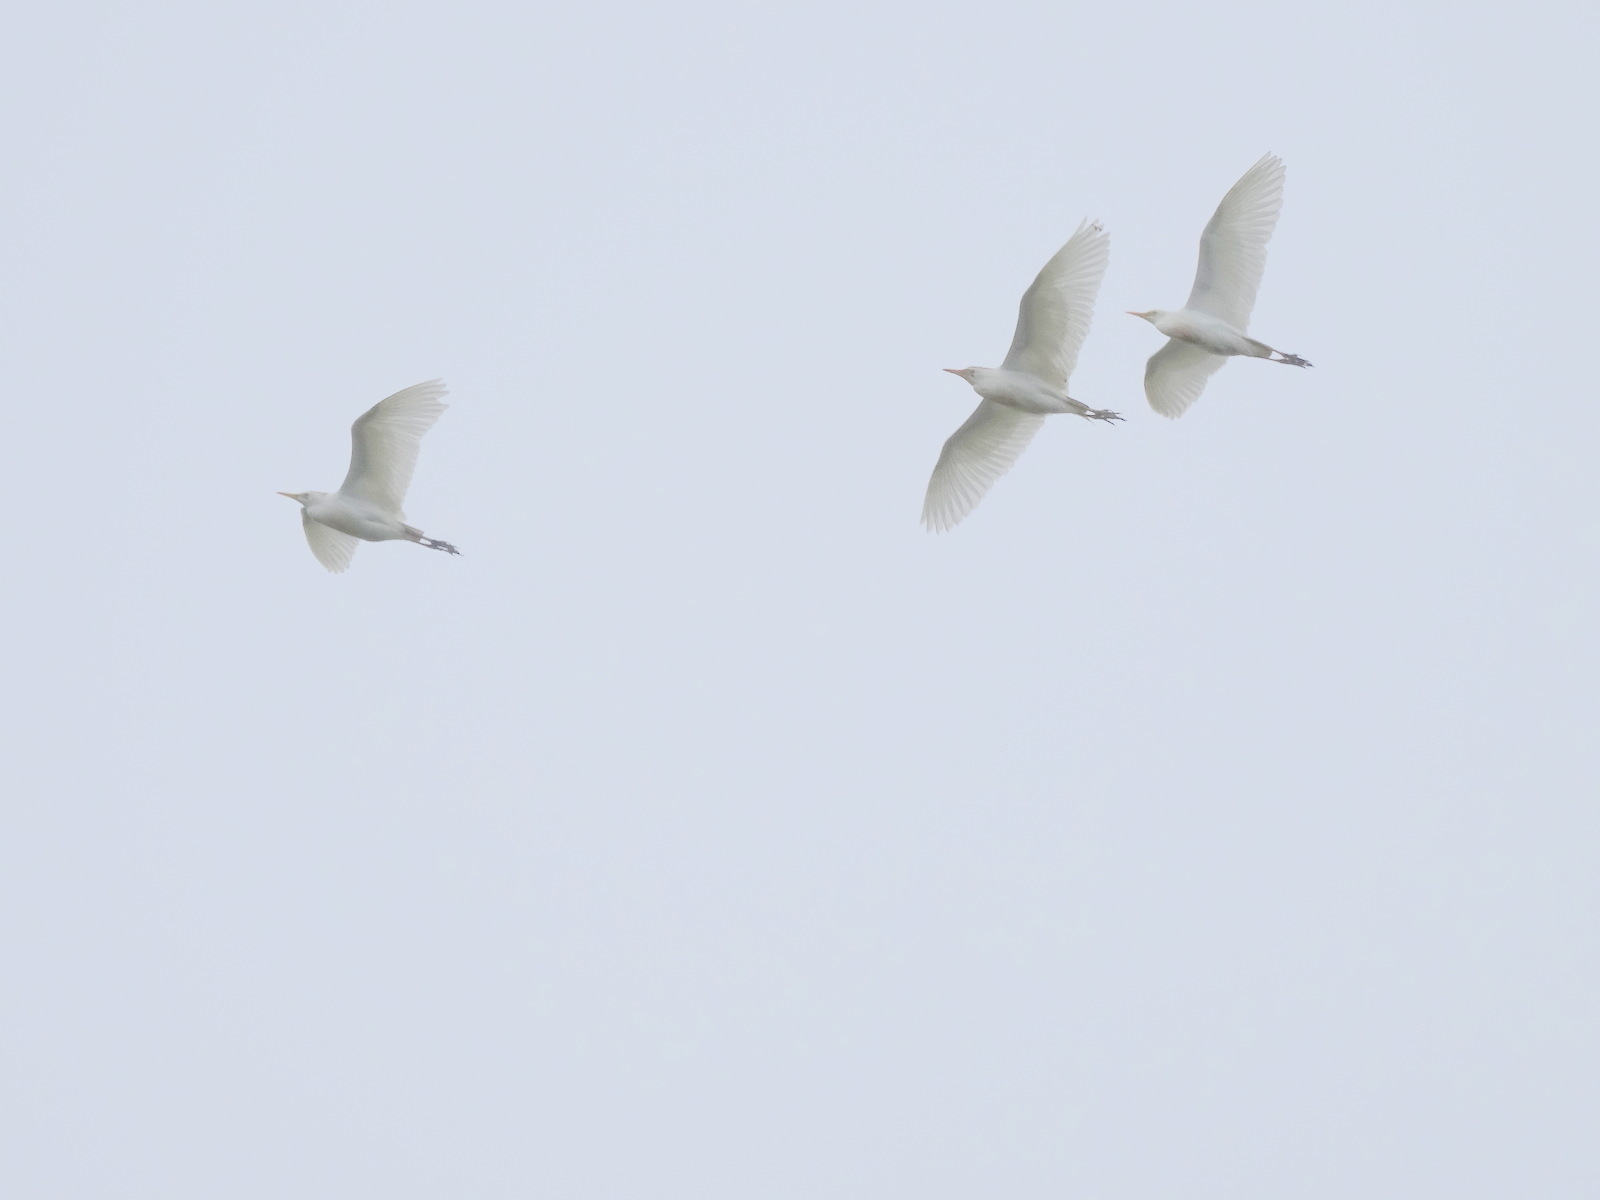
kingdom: Animalia
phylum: Chordata
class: Aves
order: Pelecaniformes
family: Ardeidae
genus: Bubulcus
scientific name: Bubulcus ibis
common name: Cattle egret
